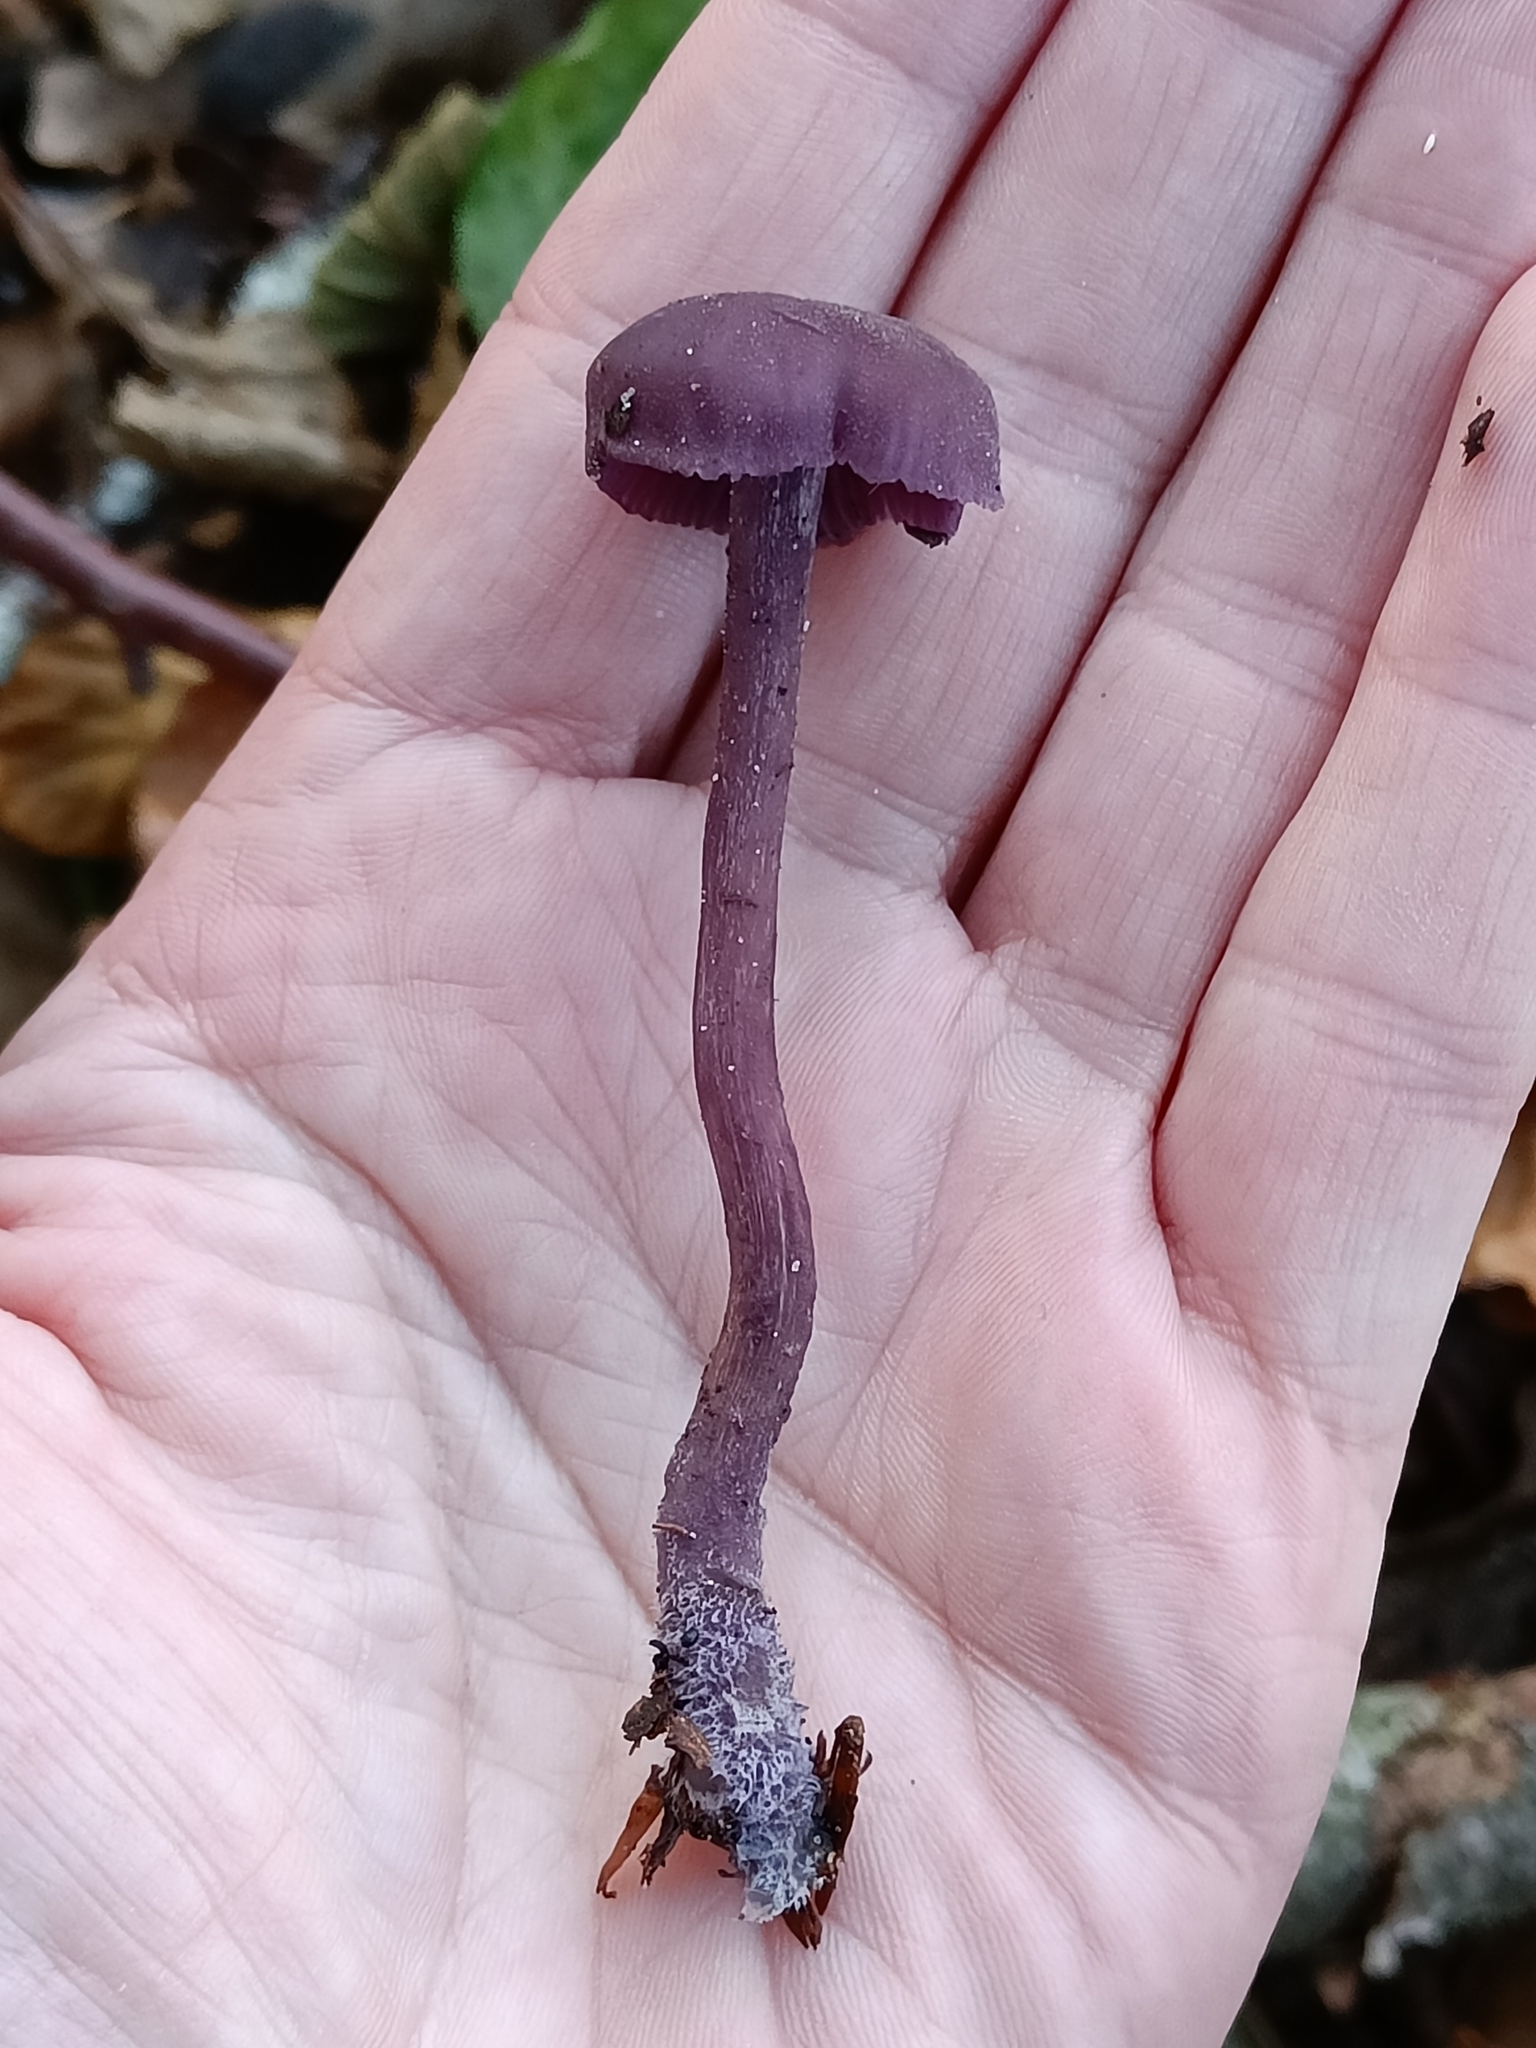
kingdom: Fungi
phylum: Basidiomycota
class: Agaricomycetes
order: Agaricales
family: Hydnangiaceae
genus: Laccaria
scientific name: Laccaria amethystina
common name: Amethyst deceiver
